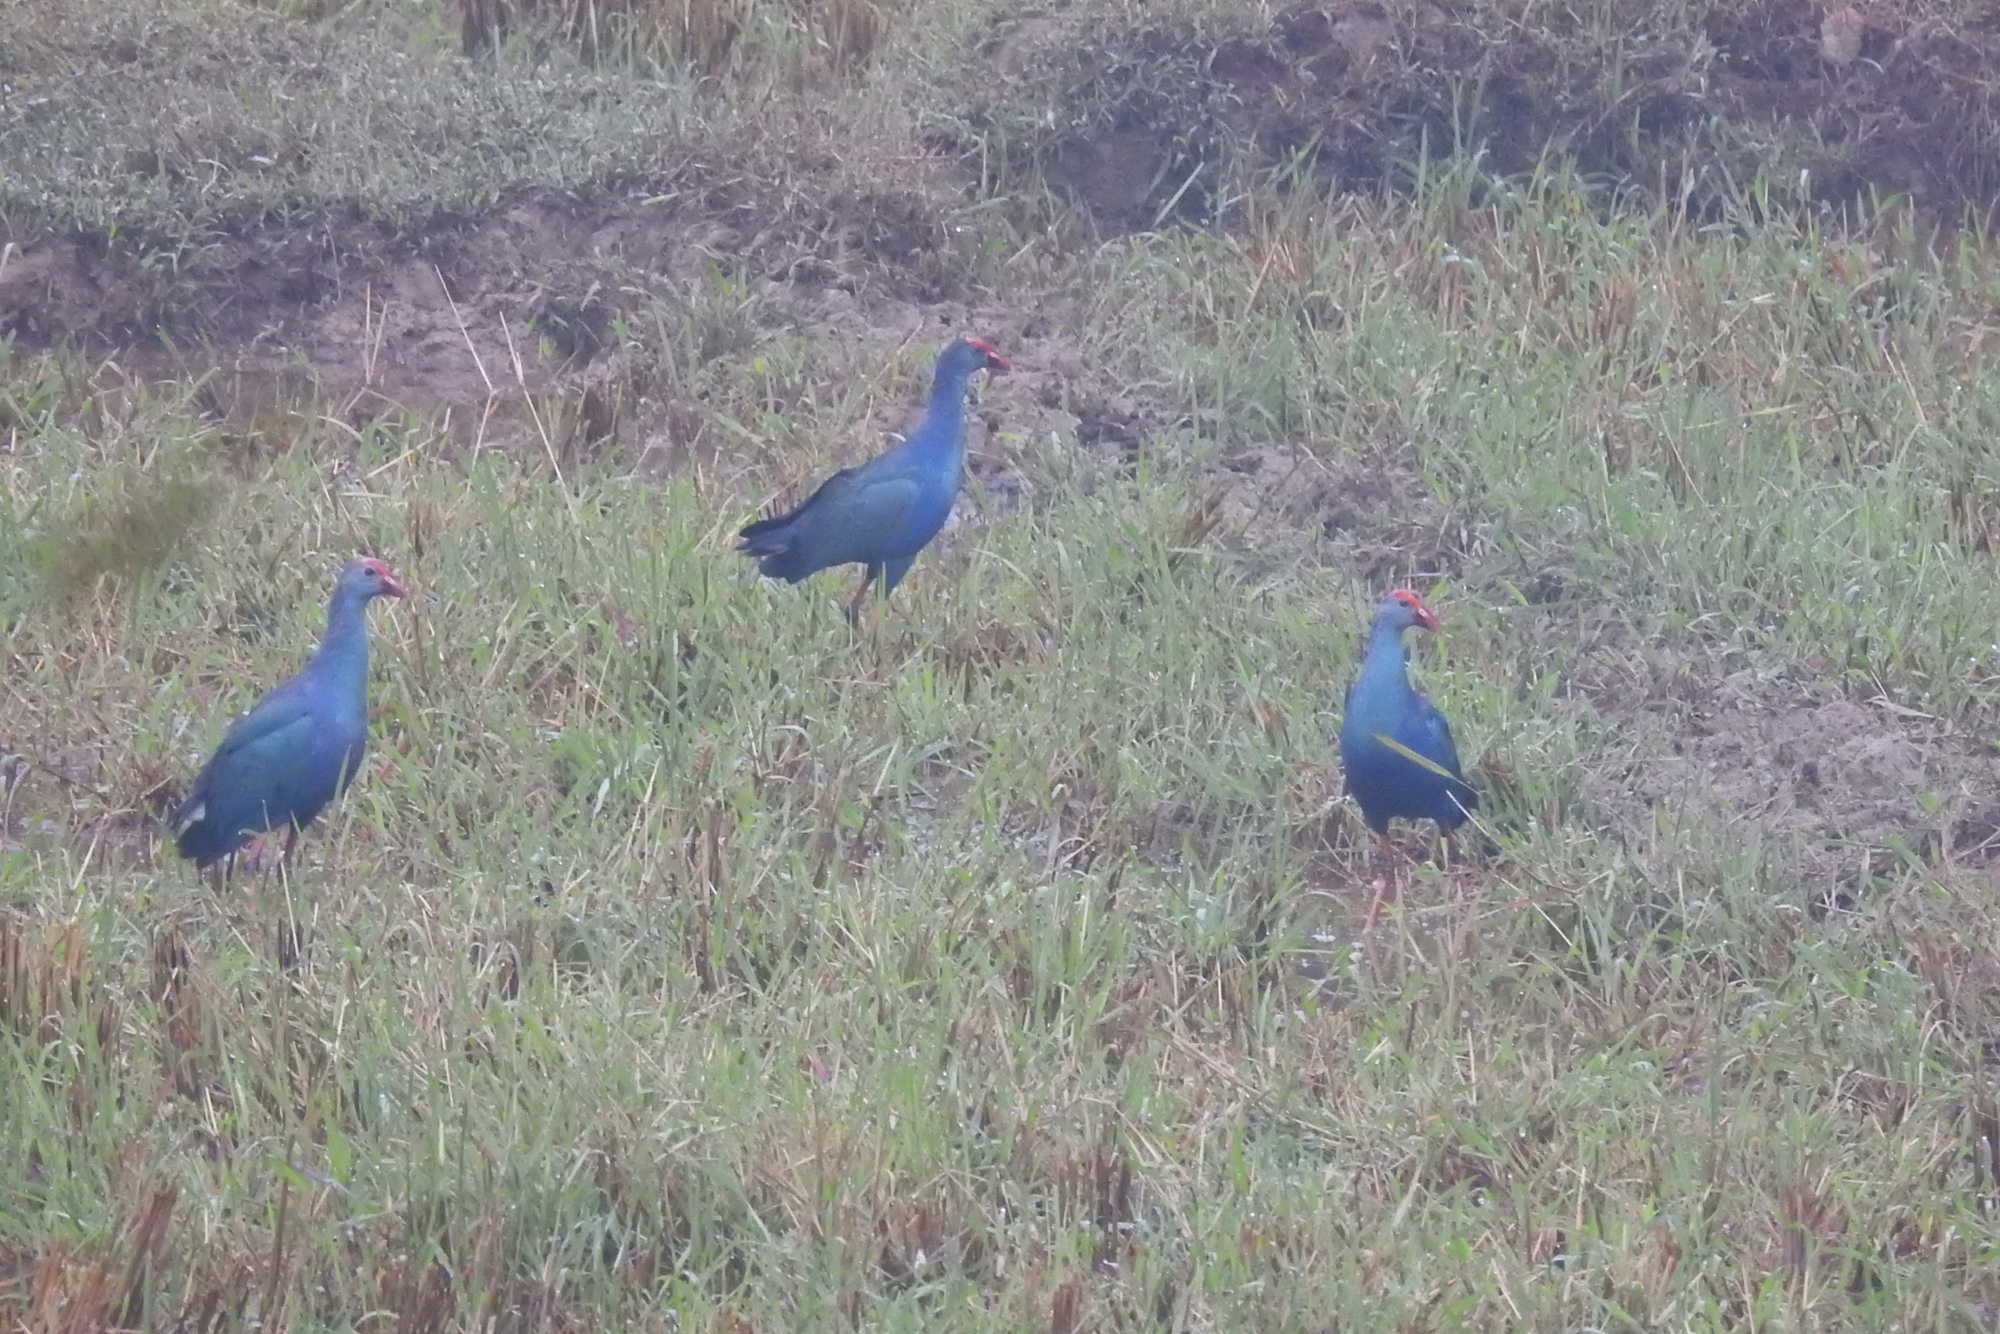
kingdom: Animalia
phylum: Chordata
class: Aves
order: Gruiformes
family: Rallidae
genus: Porphyrio
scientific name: Porphyrio porphyrio
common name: Purple swamphen
